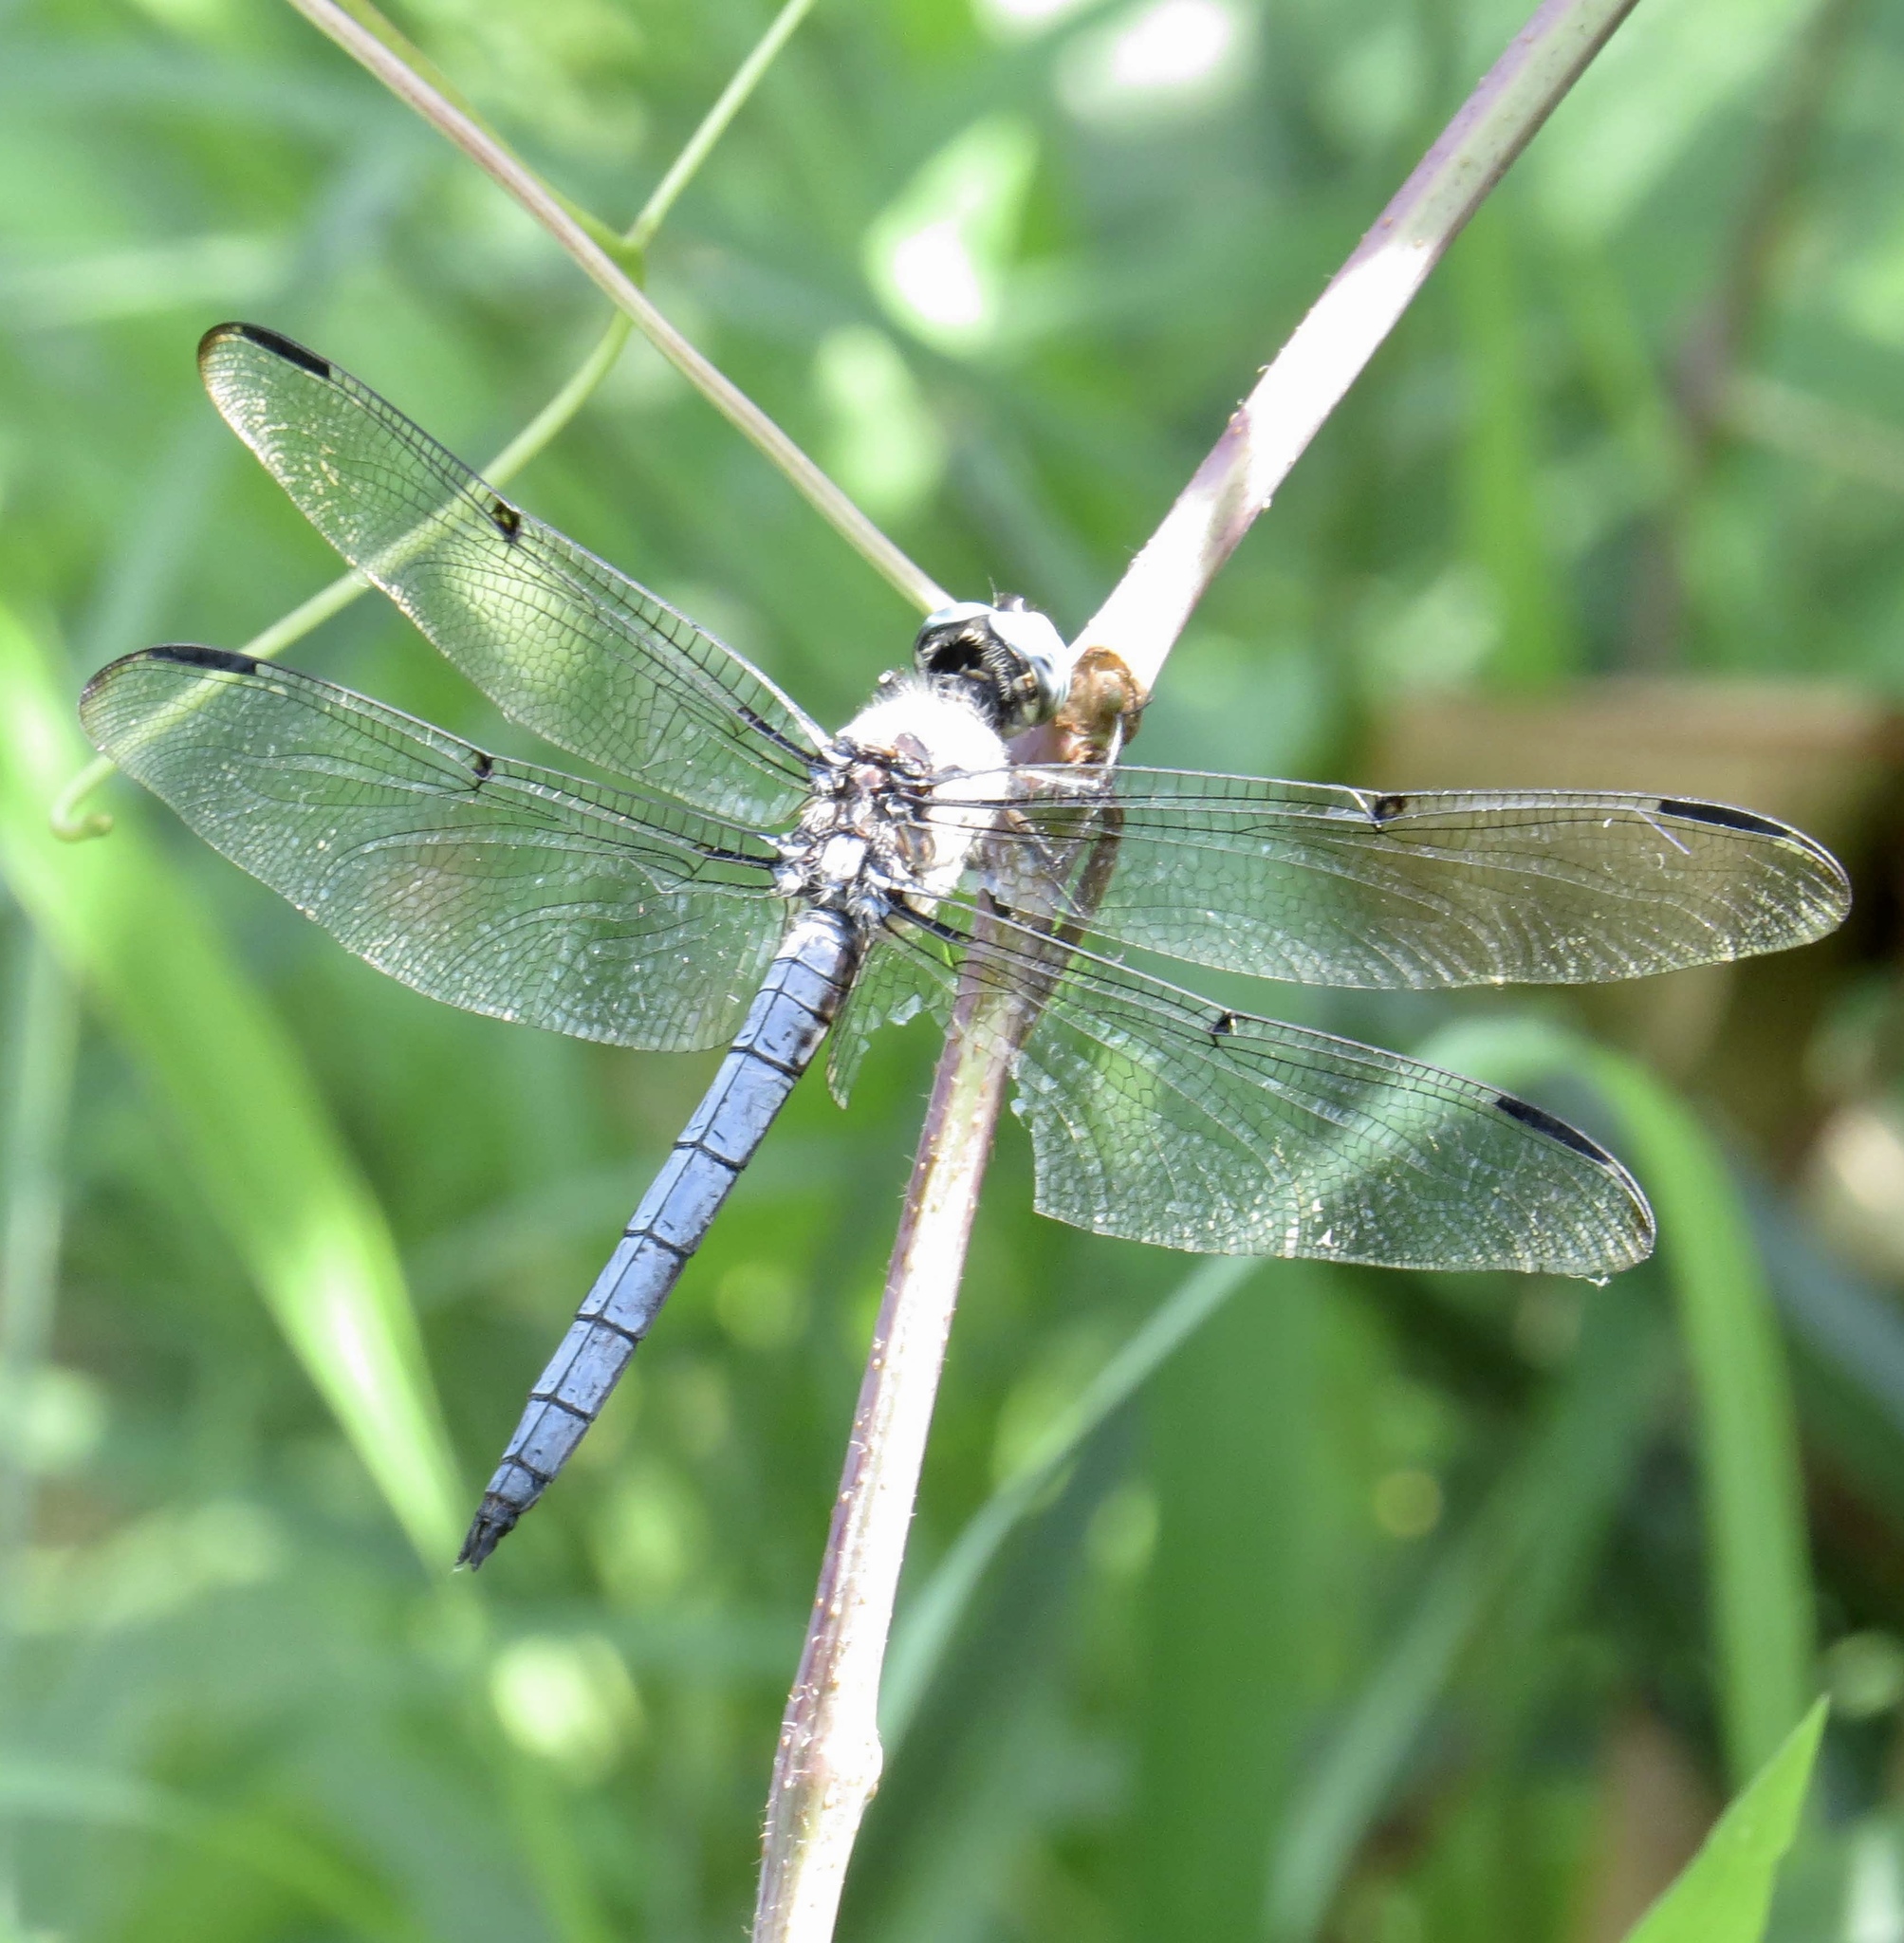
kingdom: Animalia
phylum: Arthropoda
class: Insecta
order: Odonata
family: Libellulidae
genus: Libellula
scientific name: Libellula vibrans
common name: Great blue skimmer
